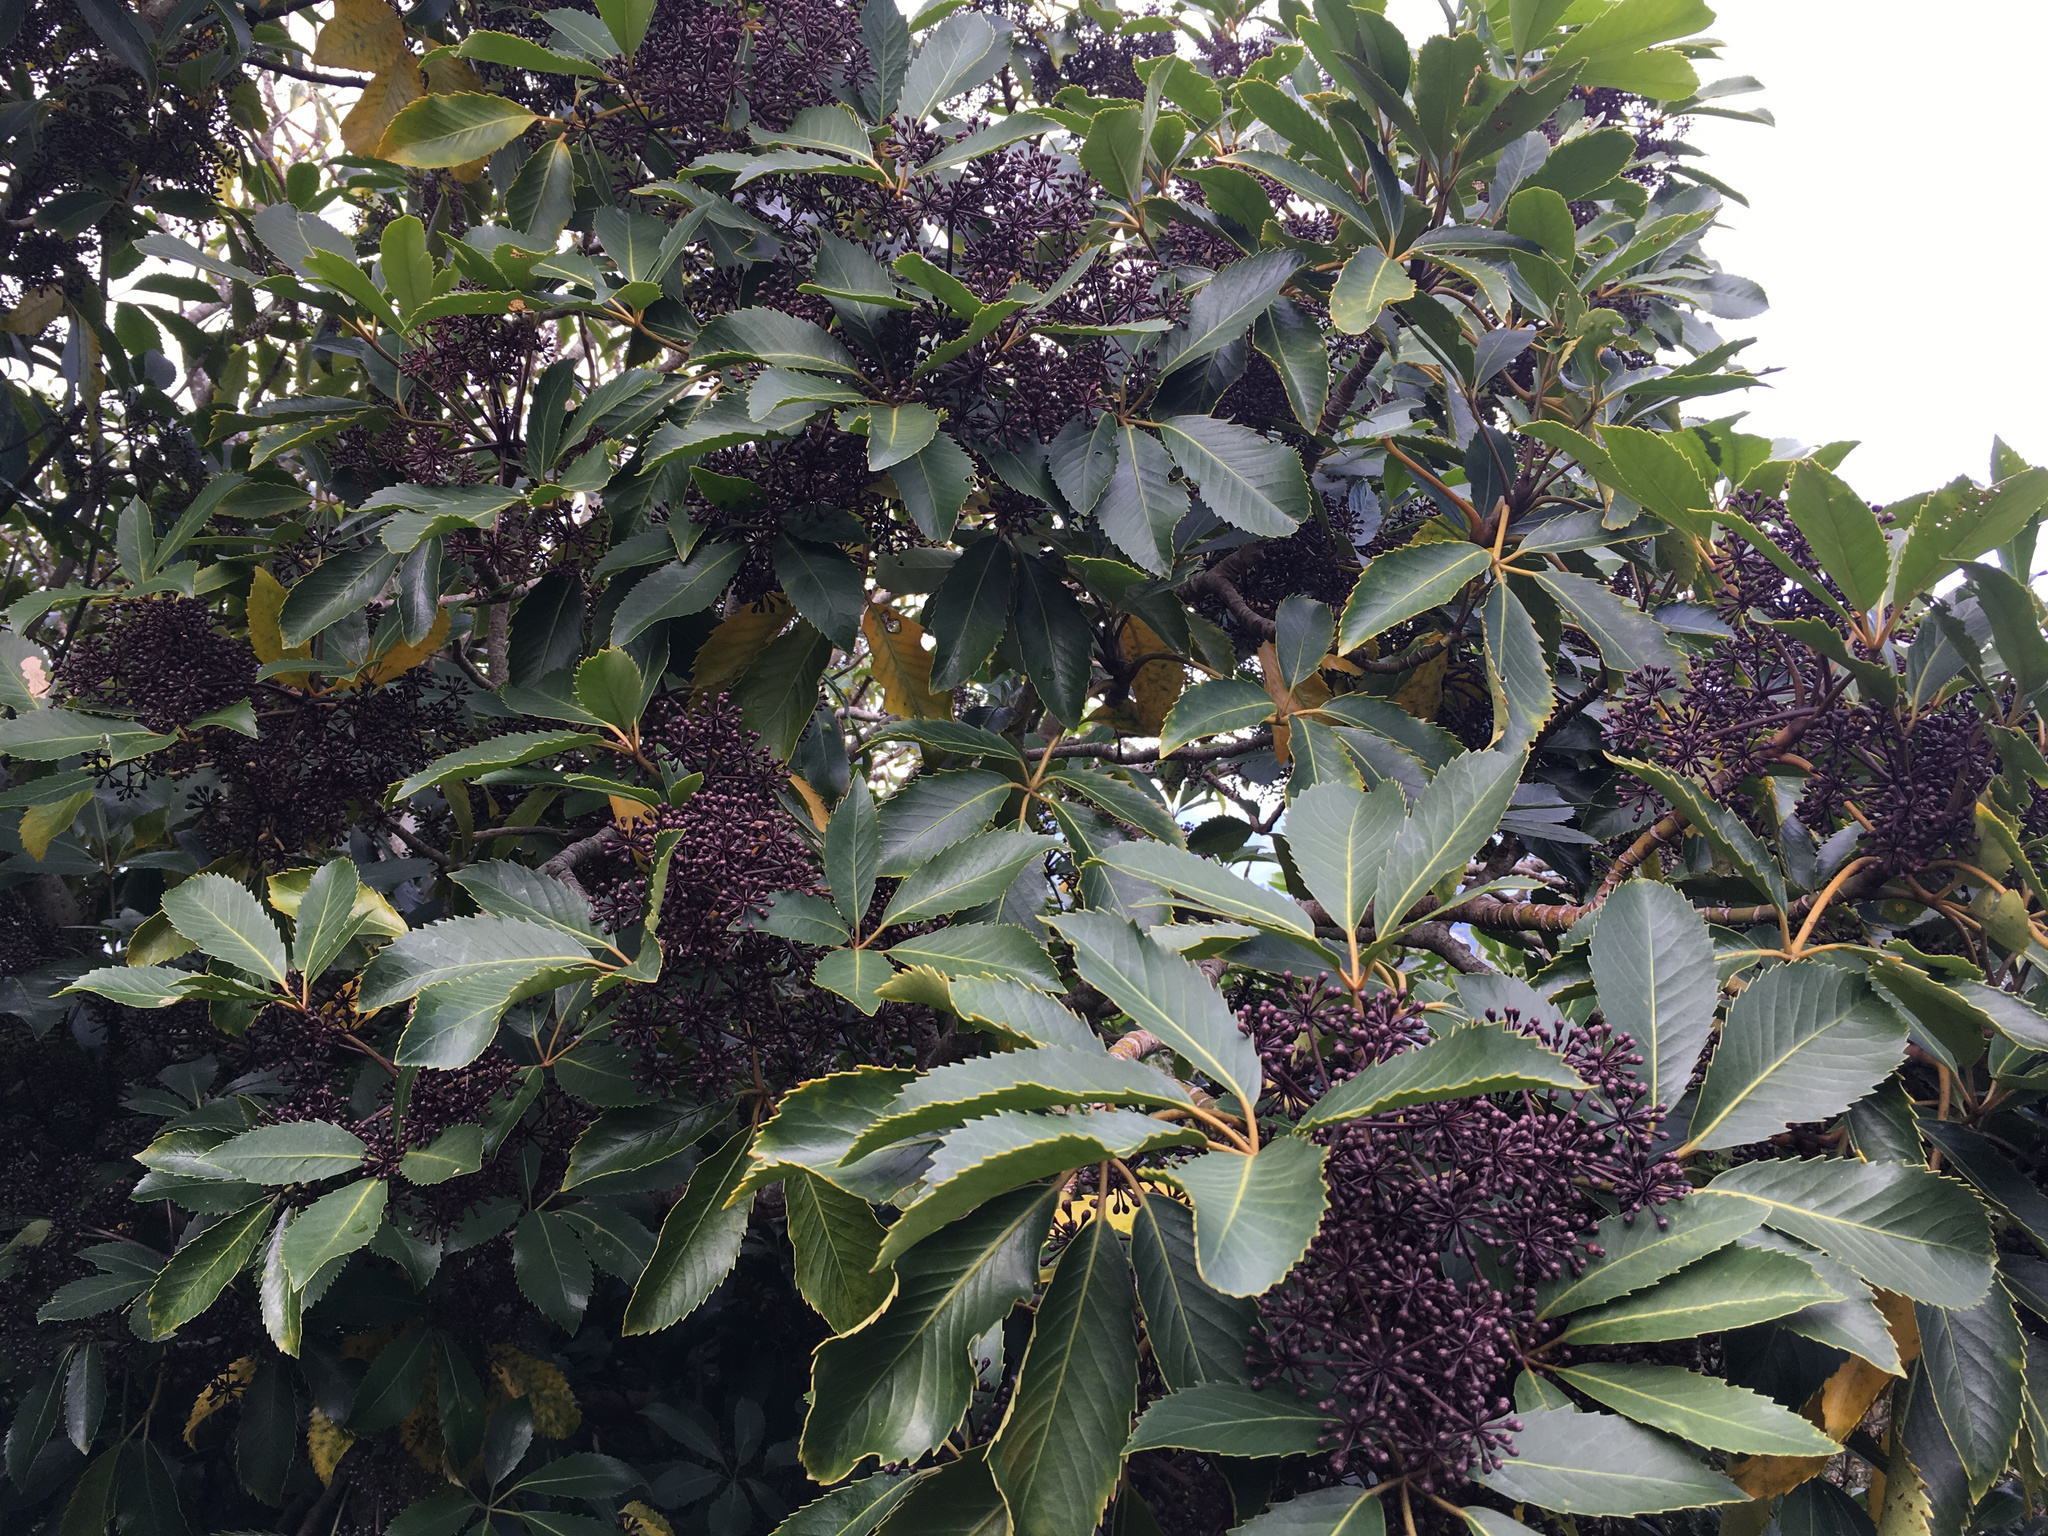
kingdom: Plantae
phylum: Tracheophyta
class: Magnoliopsida
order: Apiales
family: Araliaceae
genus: Neopanax
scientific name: Neopanax arboreus
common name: Five-fingers
